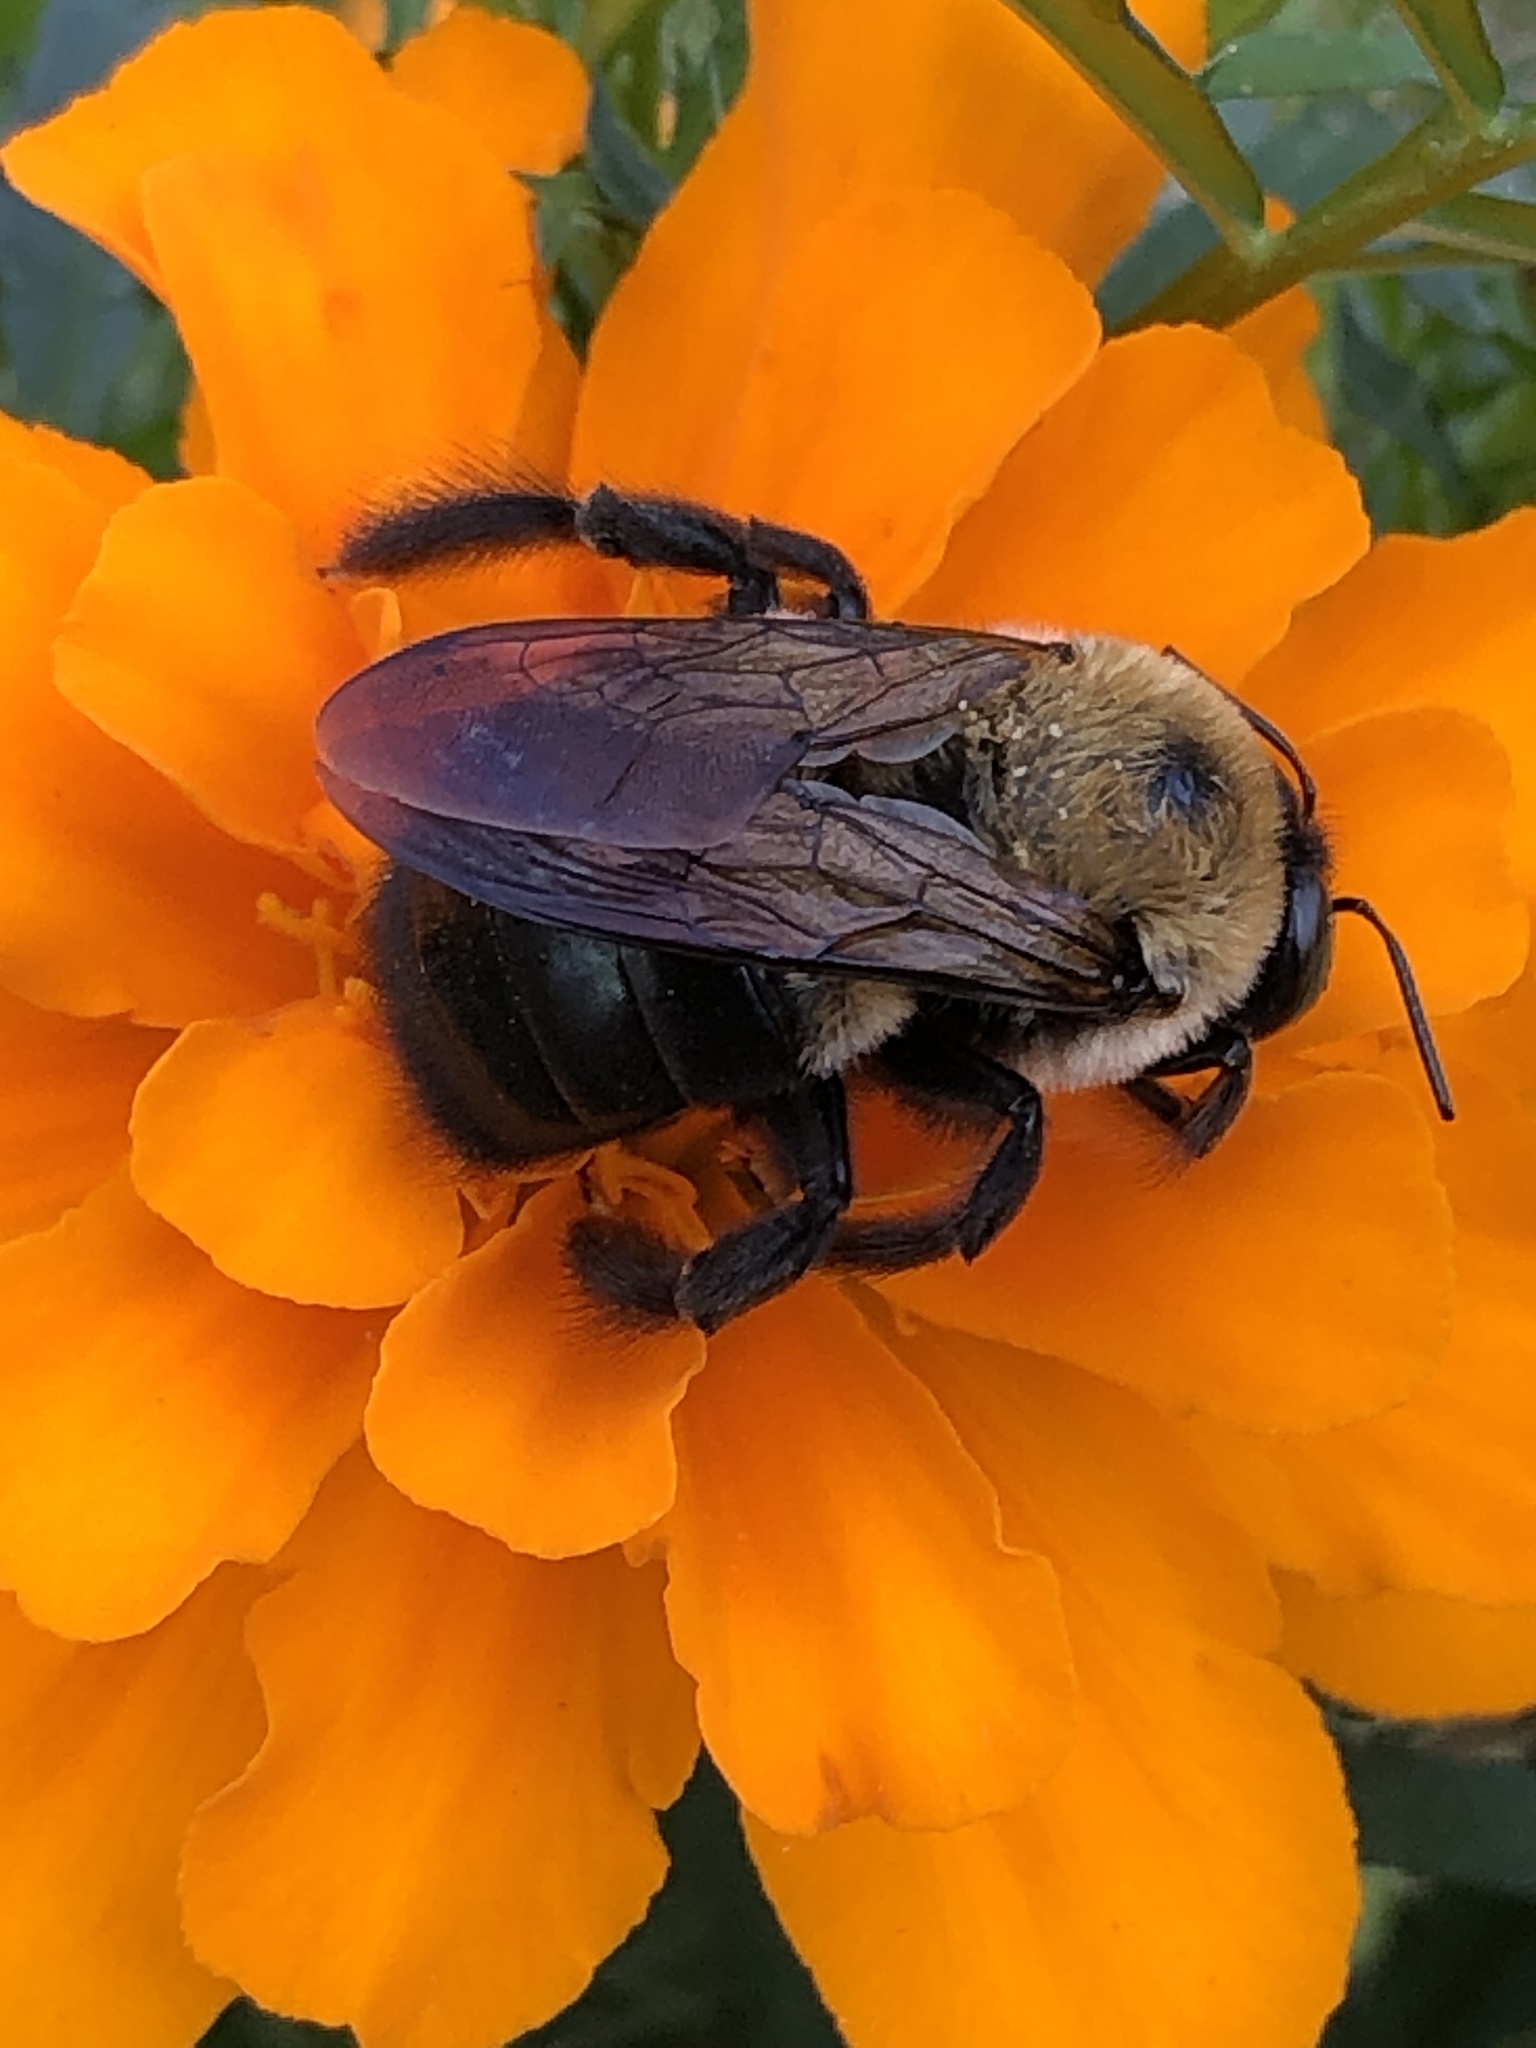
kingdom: Animalia
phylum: Arthropoda
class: Insecta
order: Hymenoptera
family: Apidae
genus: Xylocopa
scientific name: Xylocopa virginica
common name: Carpenter bee
